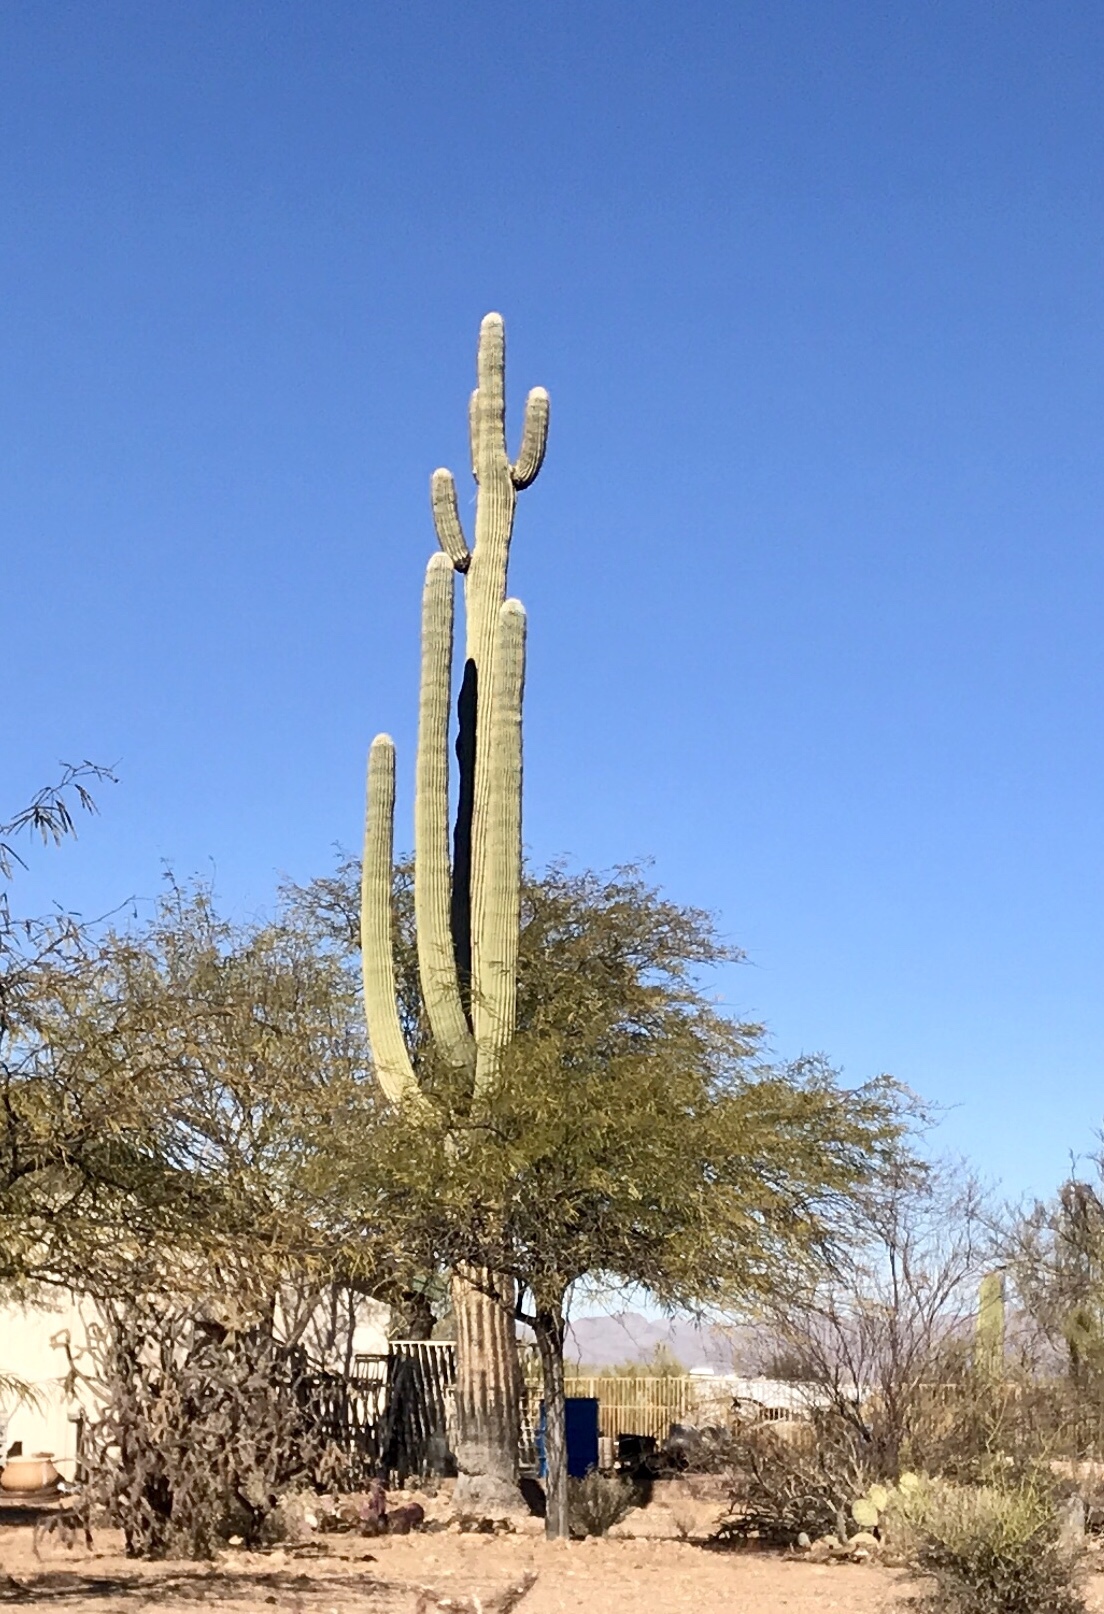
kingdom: Plantae
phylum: Tracheophyta
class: Magnoliopsida
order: Caryophyllales
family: Cactaceae
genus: Carnegiea
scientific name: Carnegiea gigantea
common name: Saguaro
